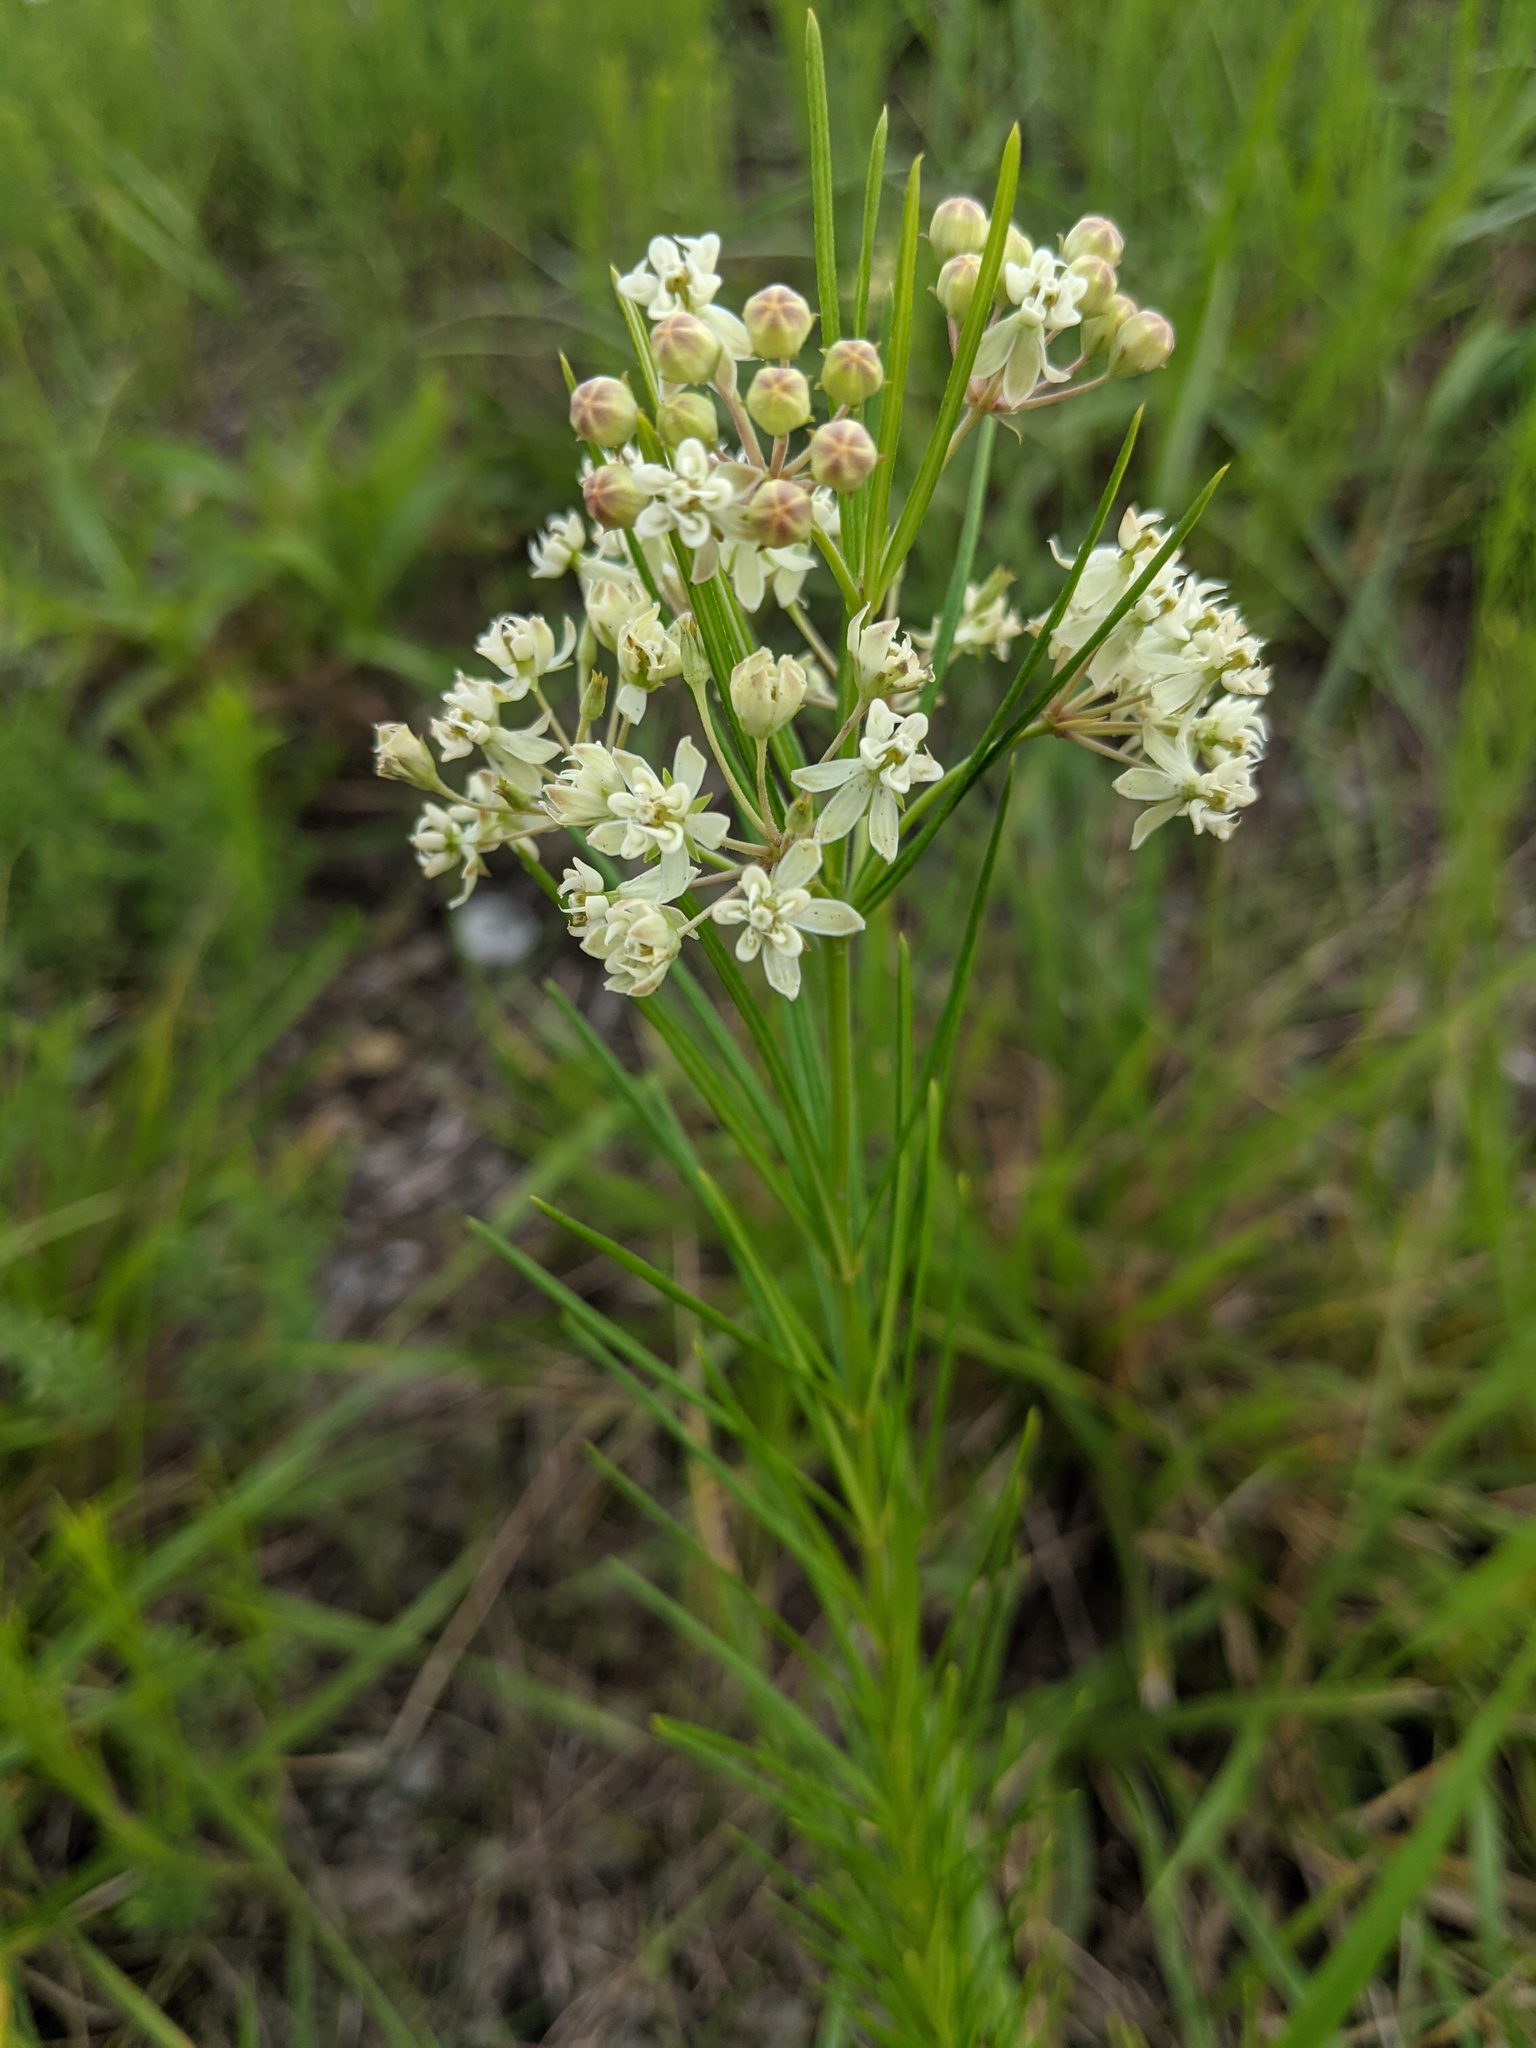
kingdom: Plantae
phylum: Tracheophyta
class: Magnoliopsida
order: Gentianales
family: Apocynaceae
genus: Asclepias
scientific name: Asclepias verticillata
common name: Eastern whorled milkweed
